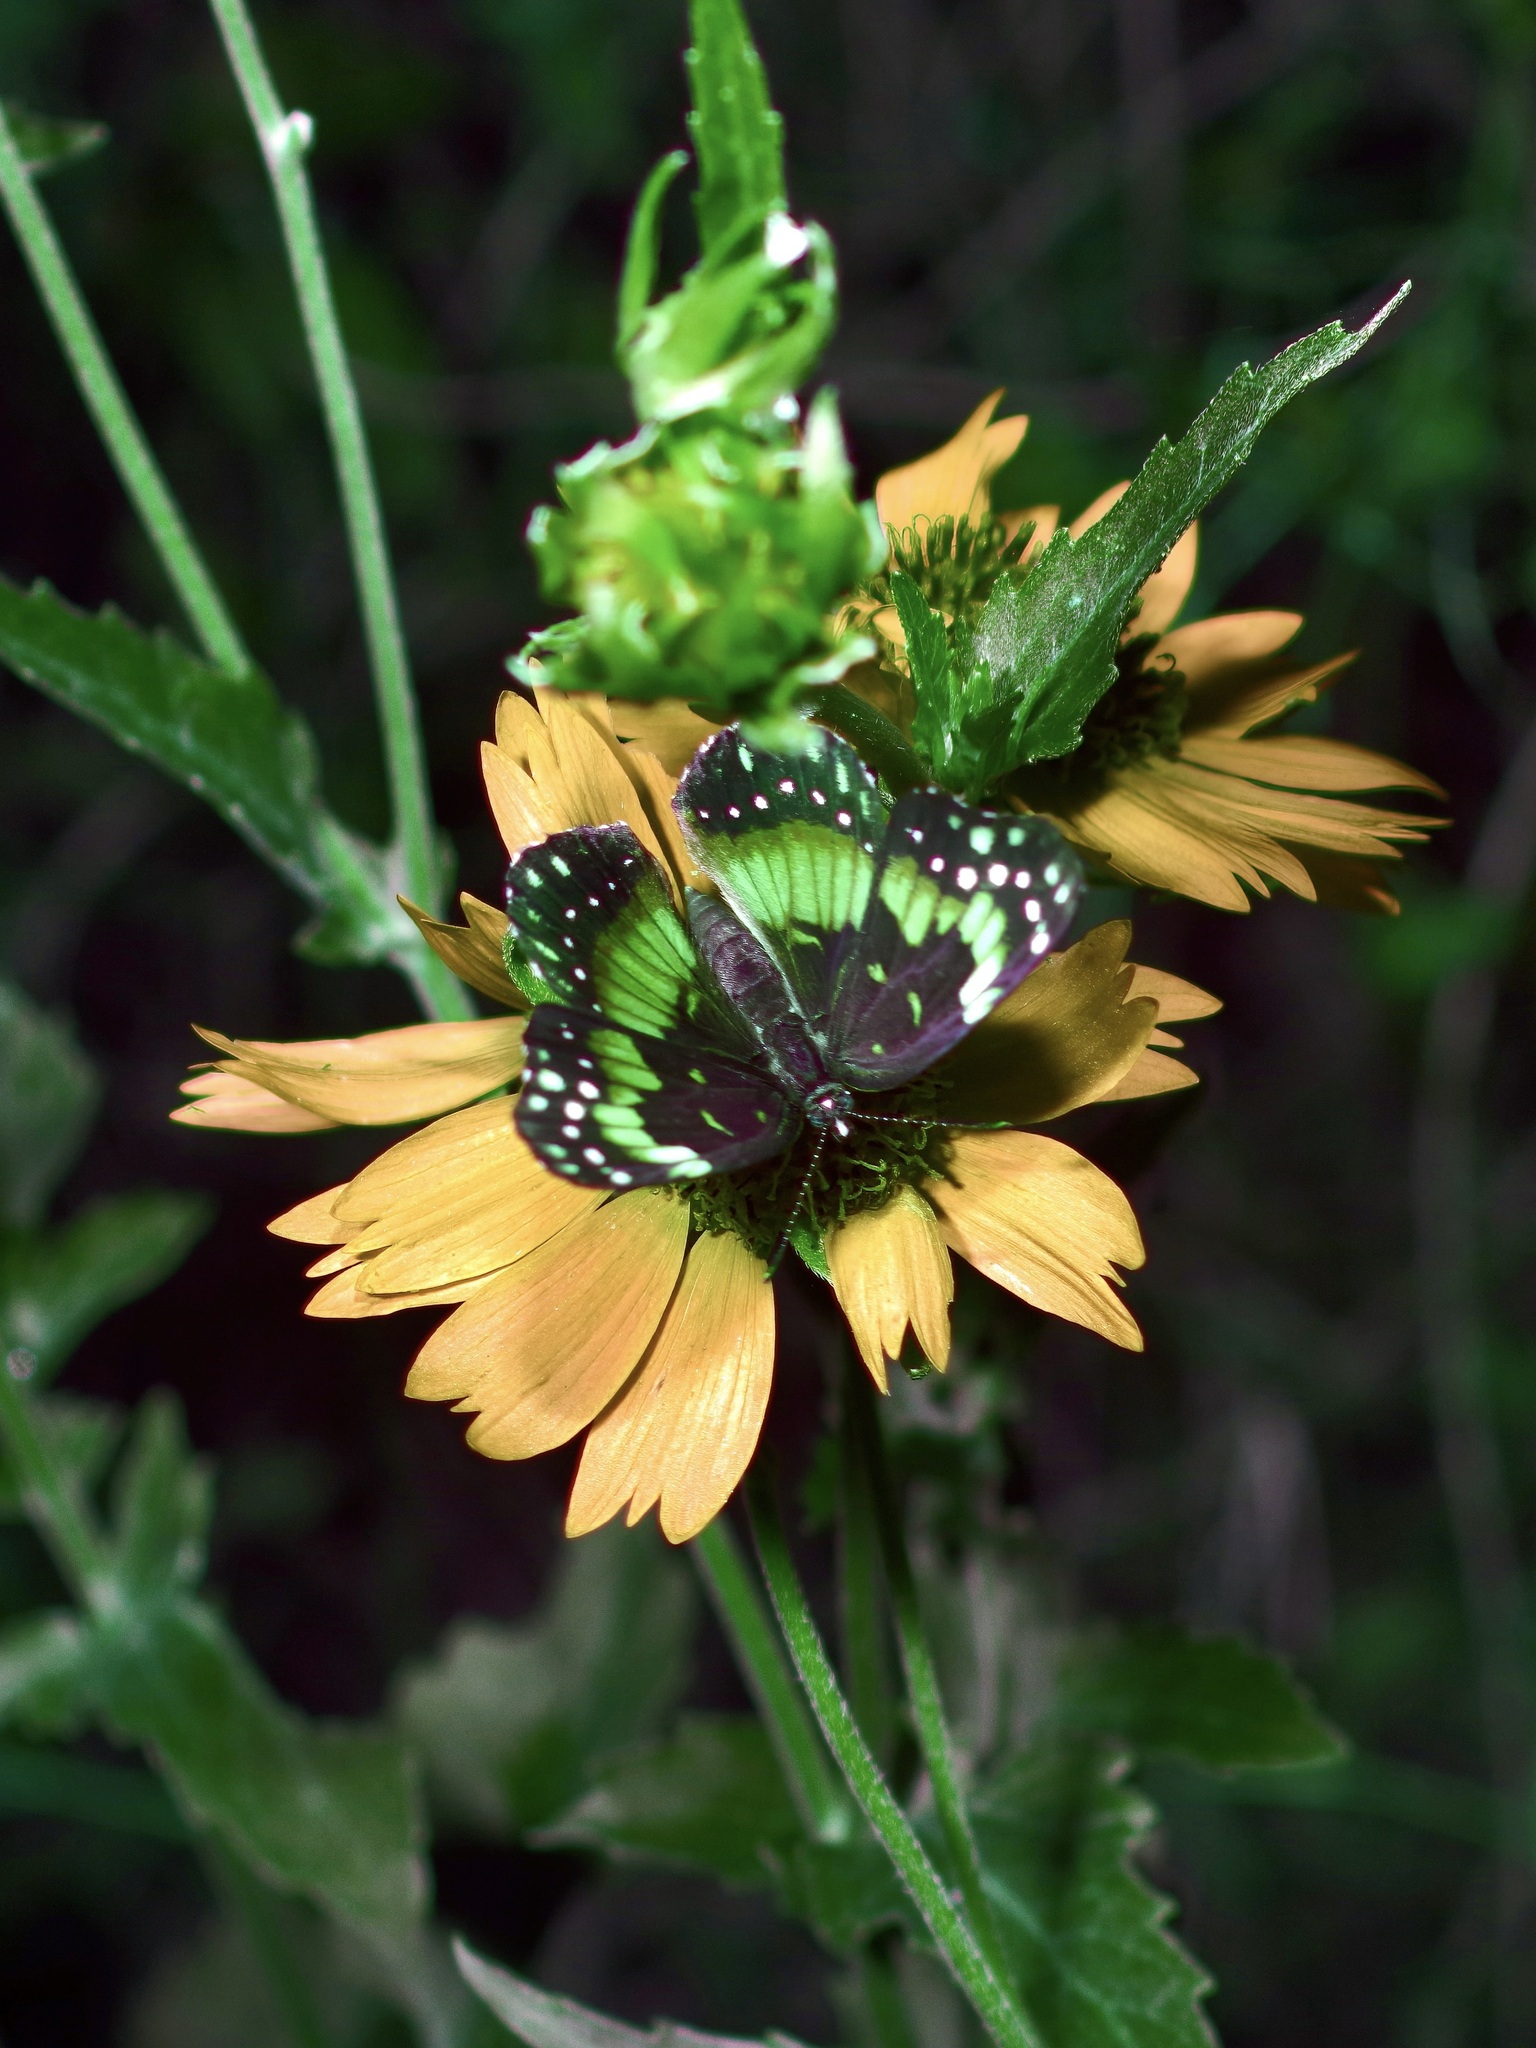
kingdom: Animalia
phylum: Arthropoda
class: Insecta
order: Lepidoptera
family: Nymphalidae
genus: Chlosyne
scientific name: Chlosyne lacinia
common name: Bordered patch
